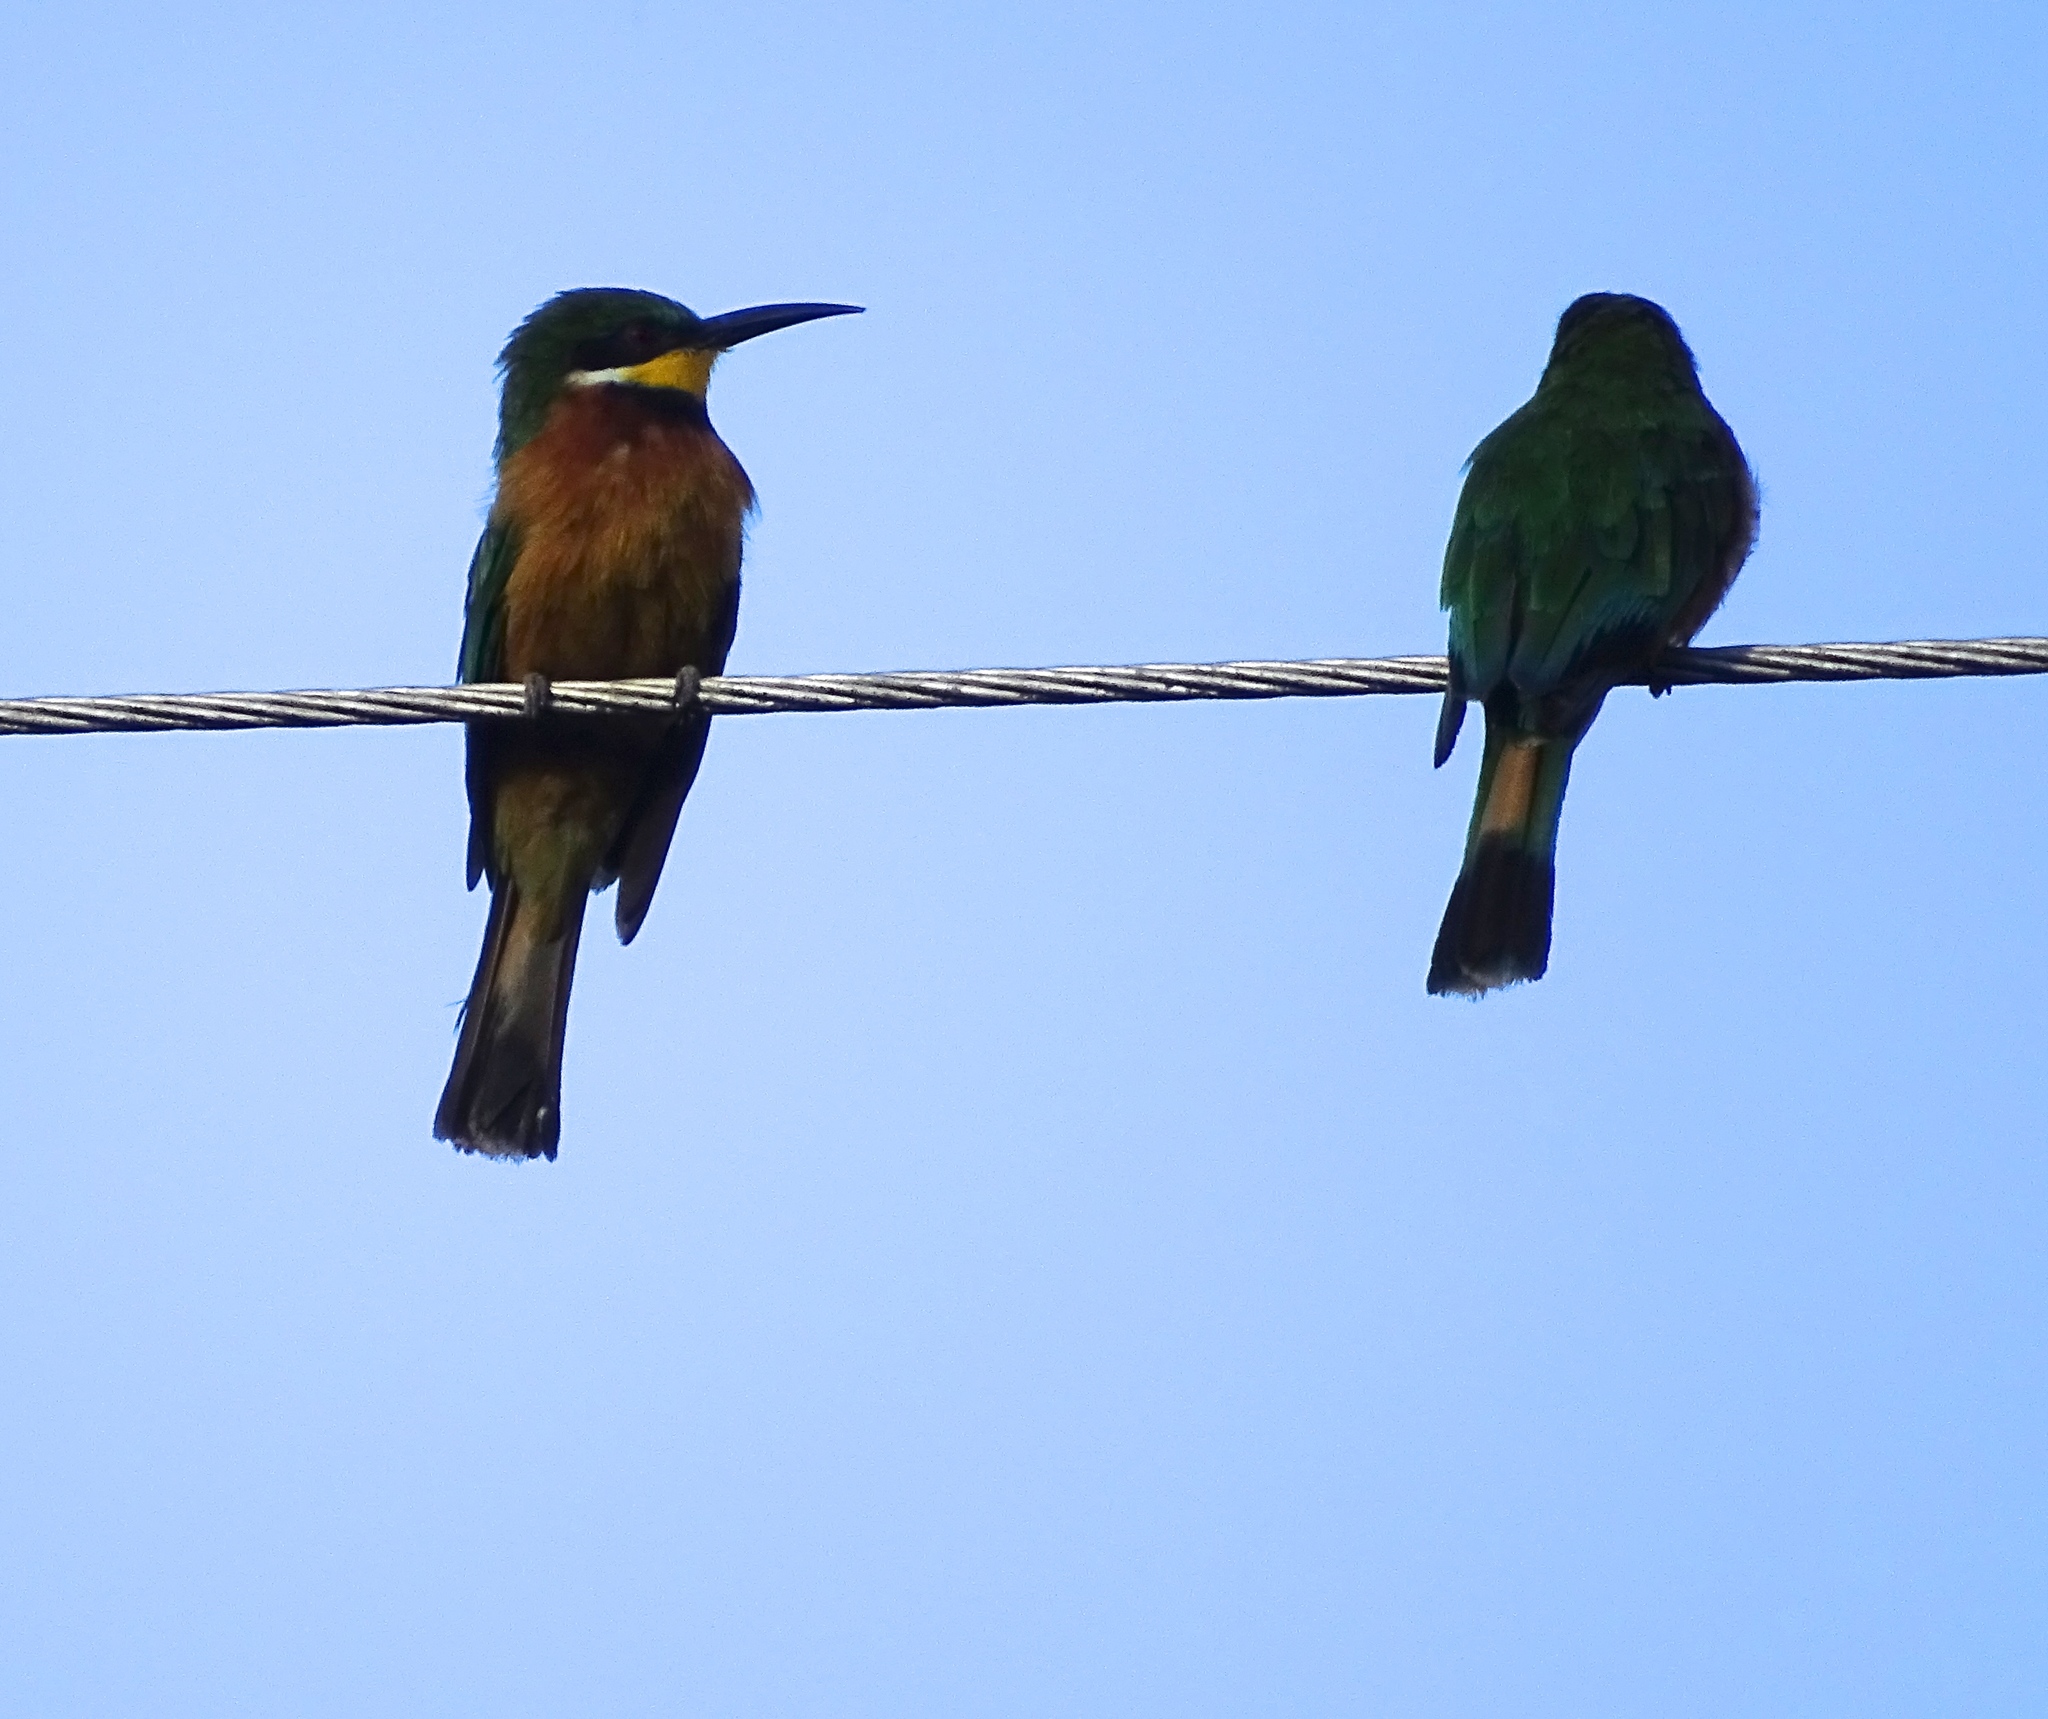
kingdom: Animalia
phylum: Chordata
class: Aves
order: Coraciiformes
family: Meropidae
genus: Merops
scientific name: Merops oreobates
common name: Cinnamon-chested bee-eater
